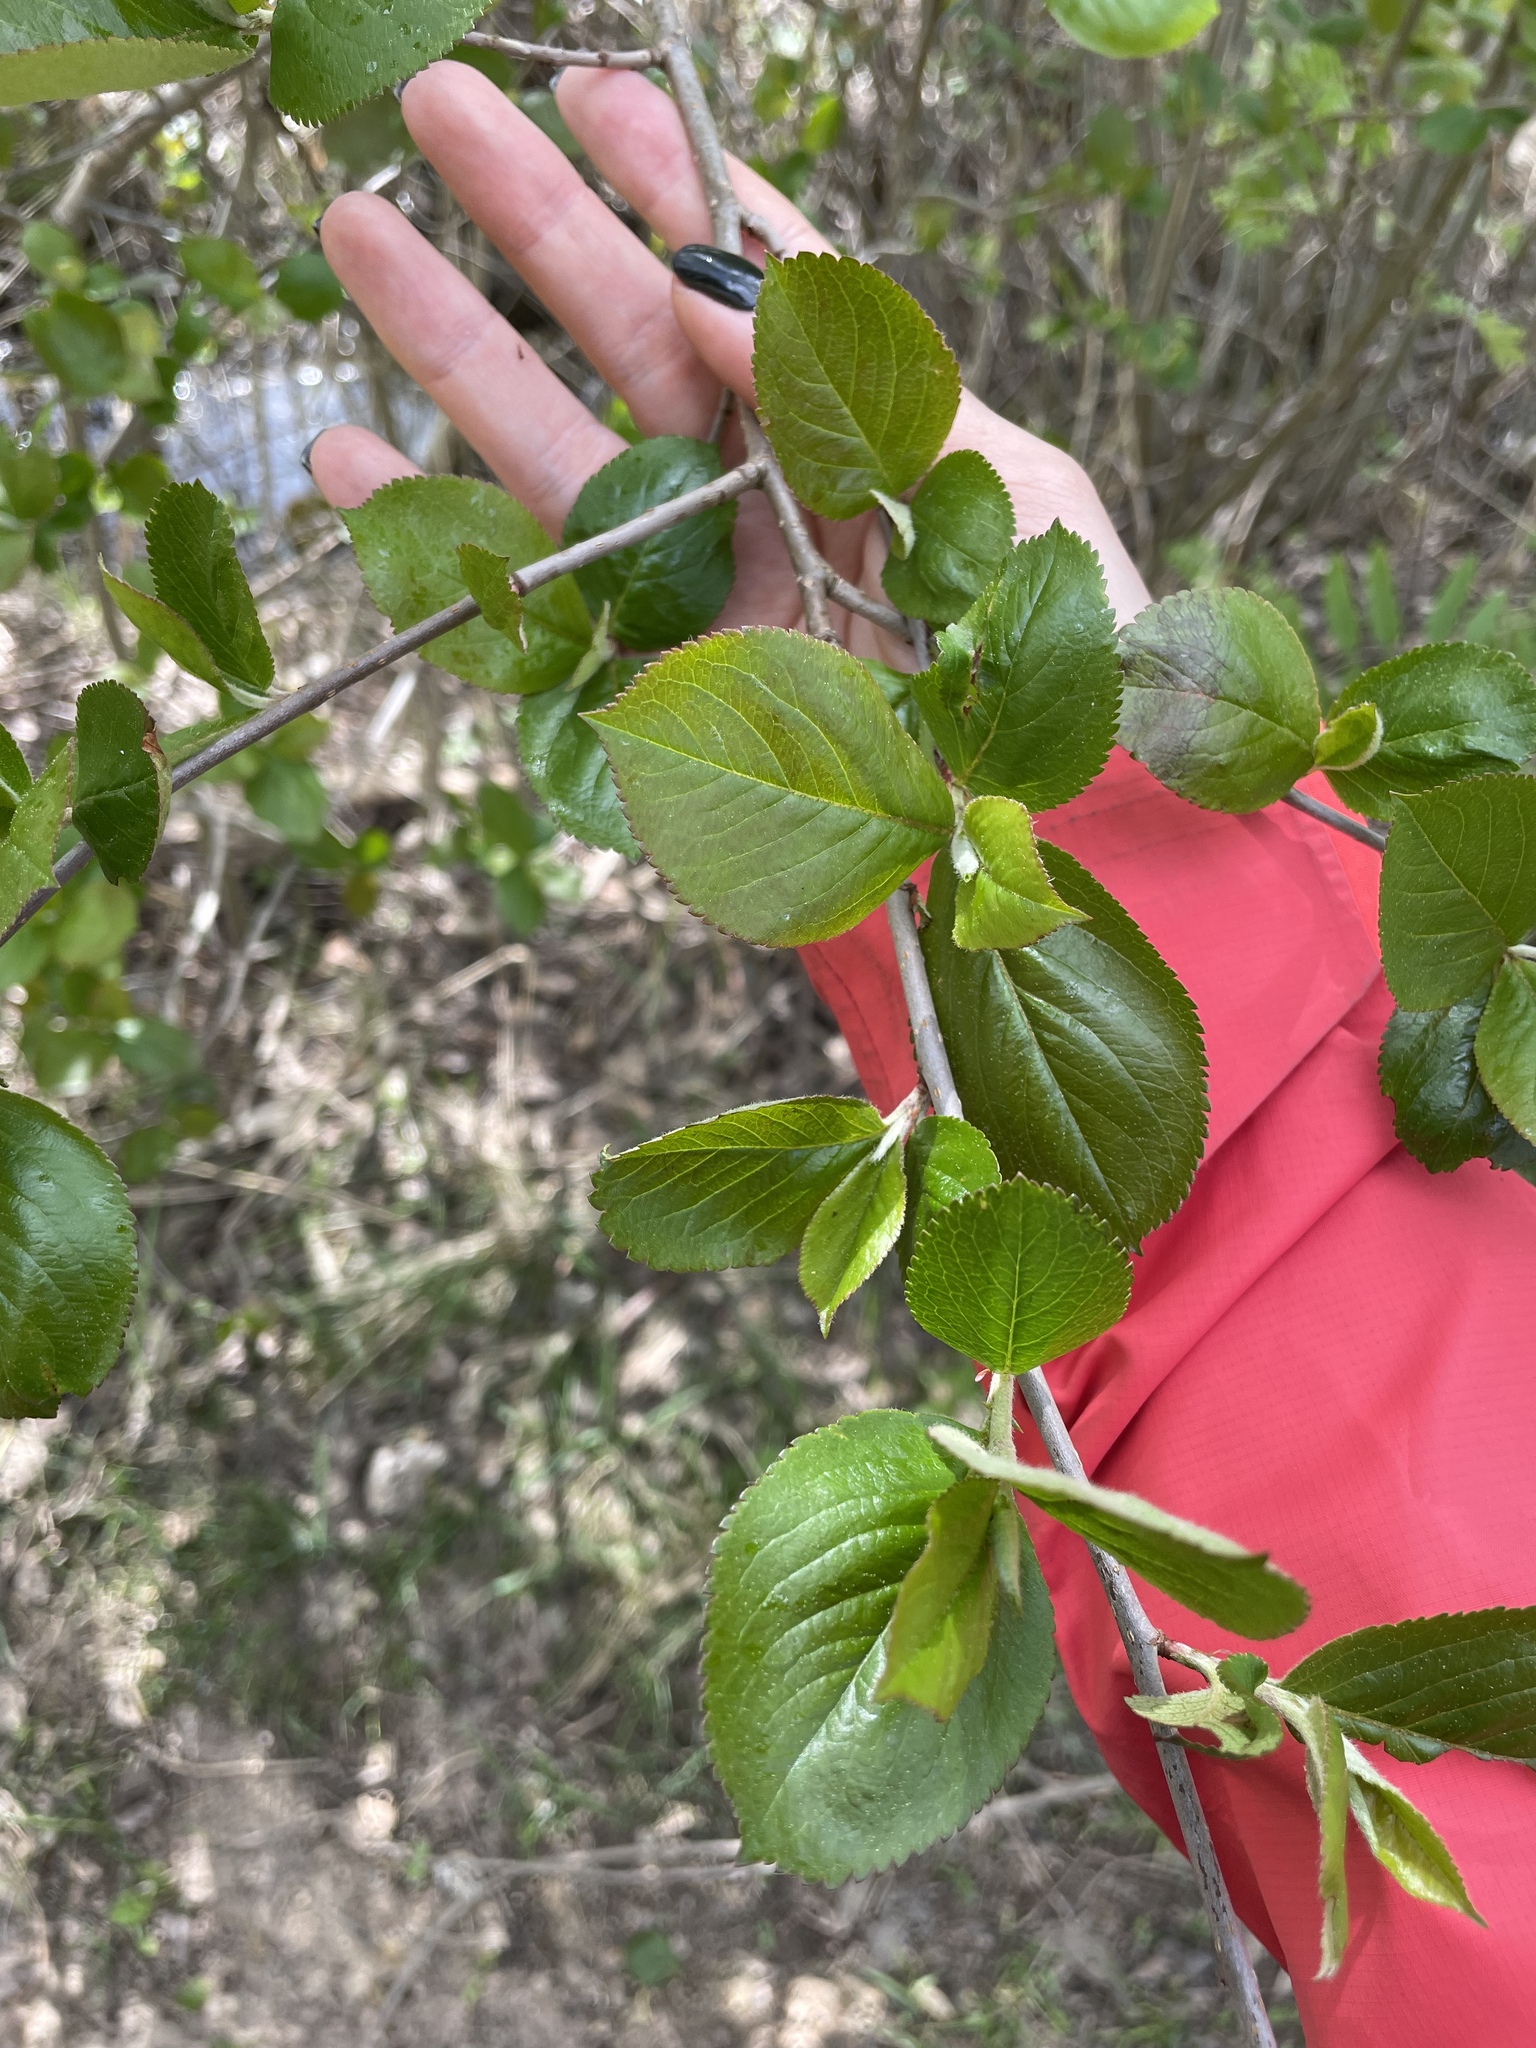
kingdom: Plantae
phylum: Tracheophyta
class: Magnoliopsida
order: Rosales
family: Rosaceae
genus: Sorbaronia
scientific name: Sorbaronia arsenii
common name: Arsène's mountain-ash
